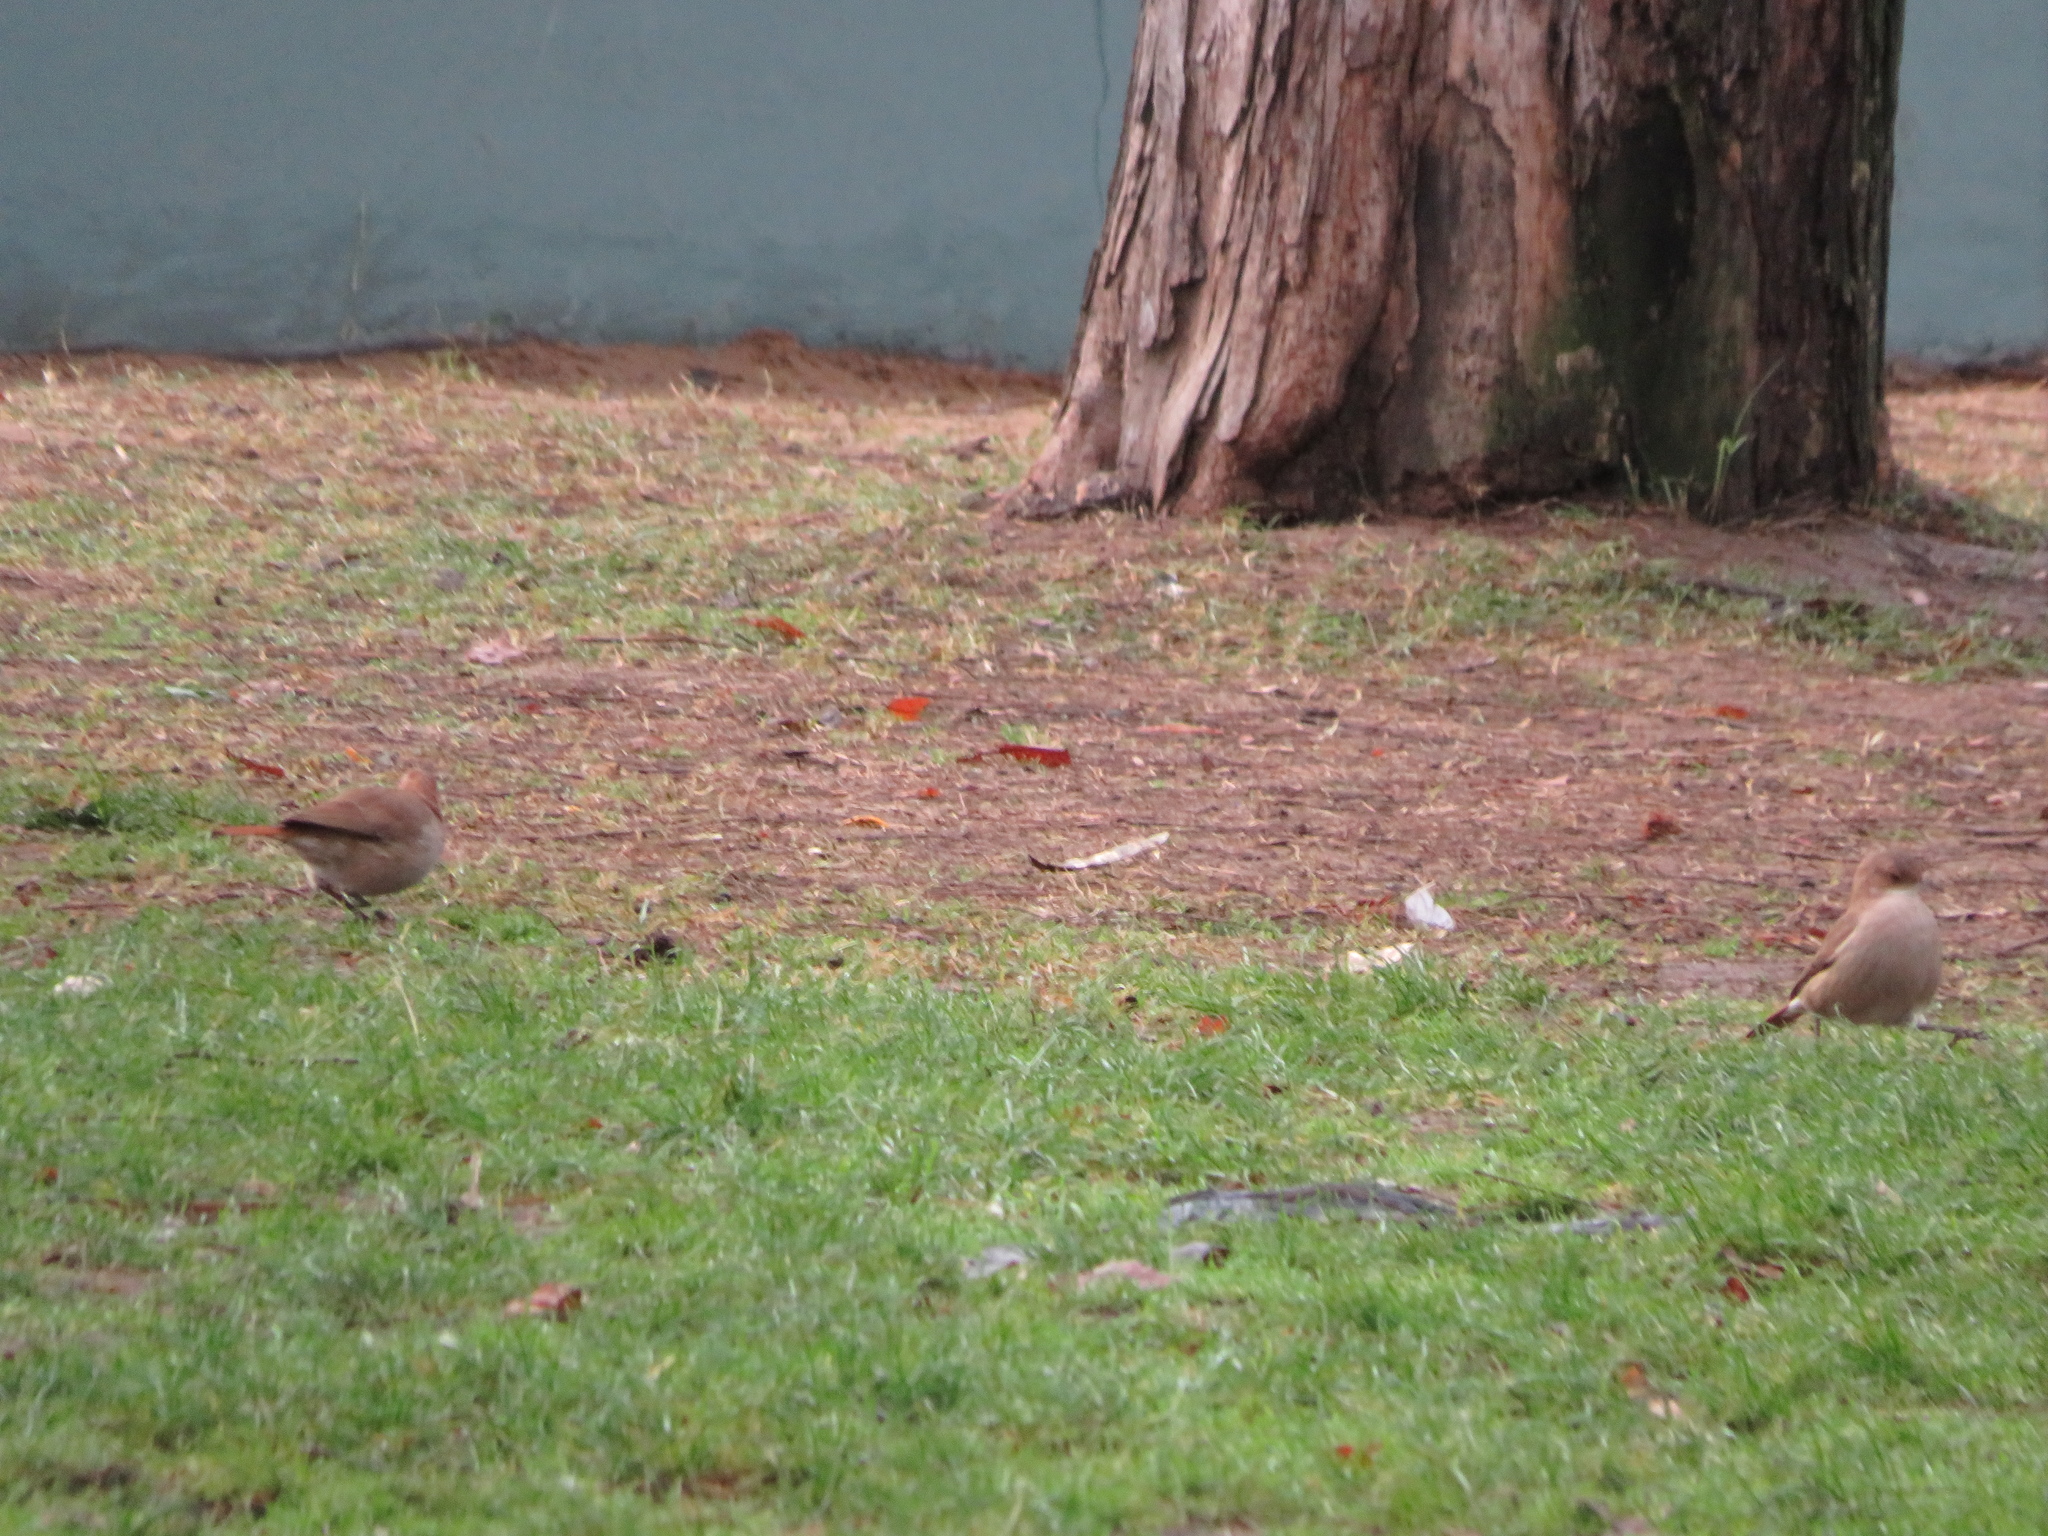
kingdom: Animalia
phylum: Chordata
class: Aves
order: Passeriformes
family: Furnariidae
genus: Furnarius
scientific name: Furnarius rufus
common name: Rufous hornero
